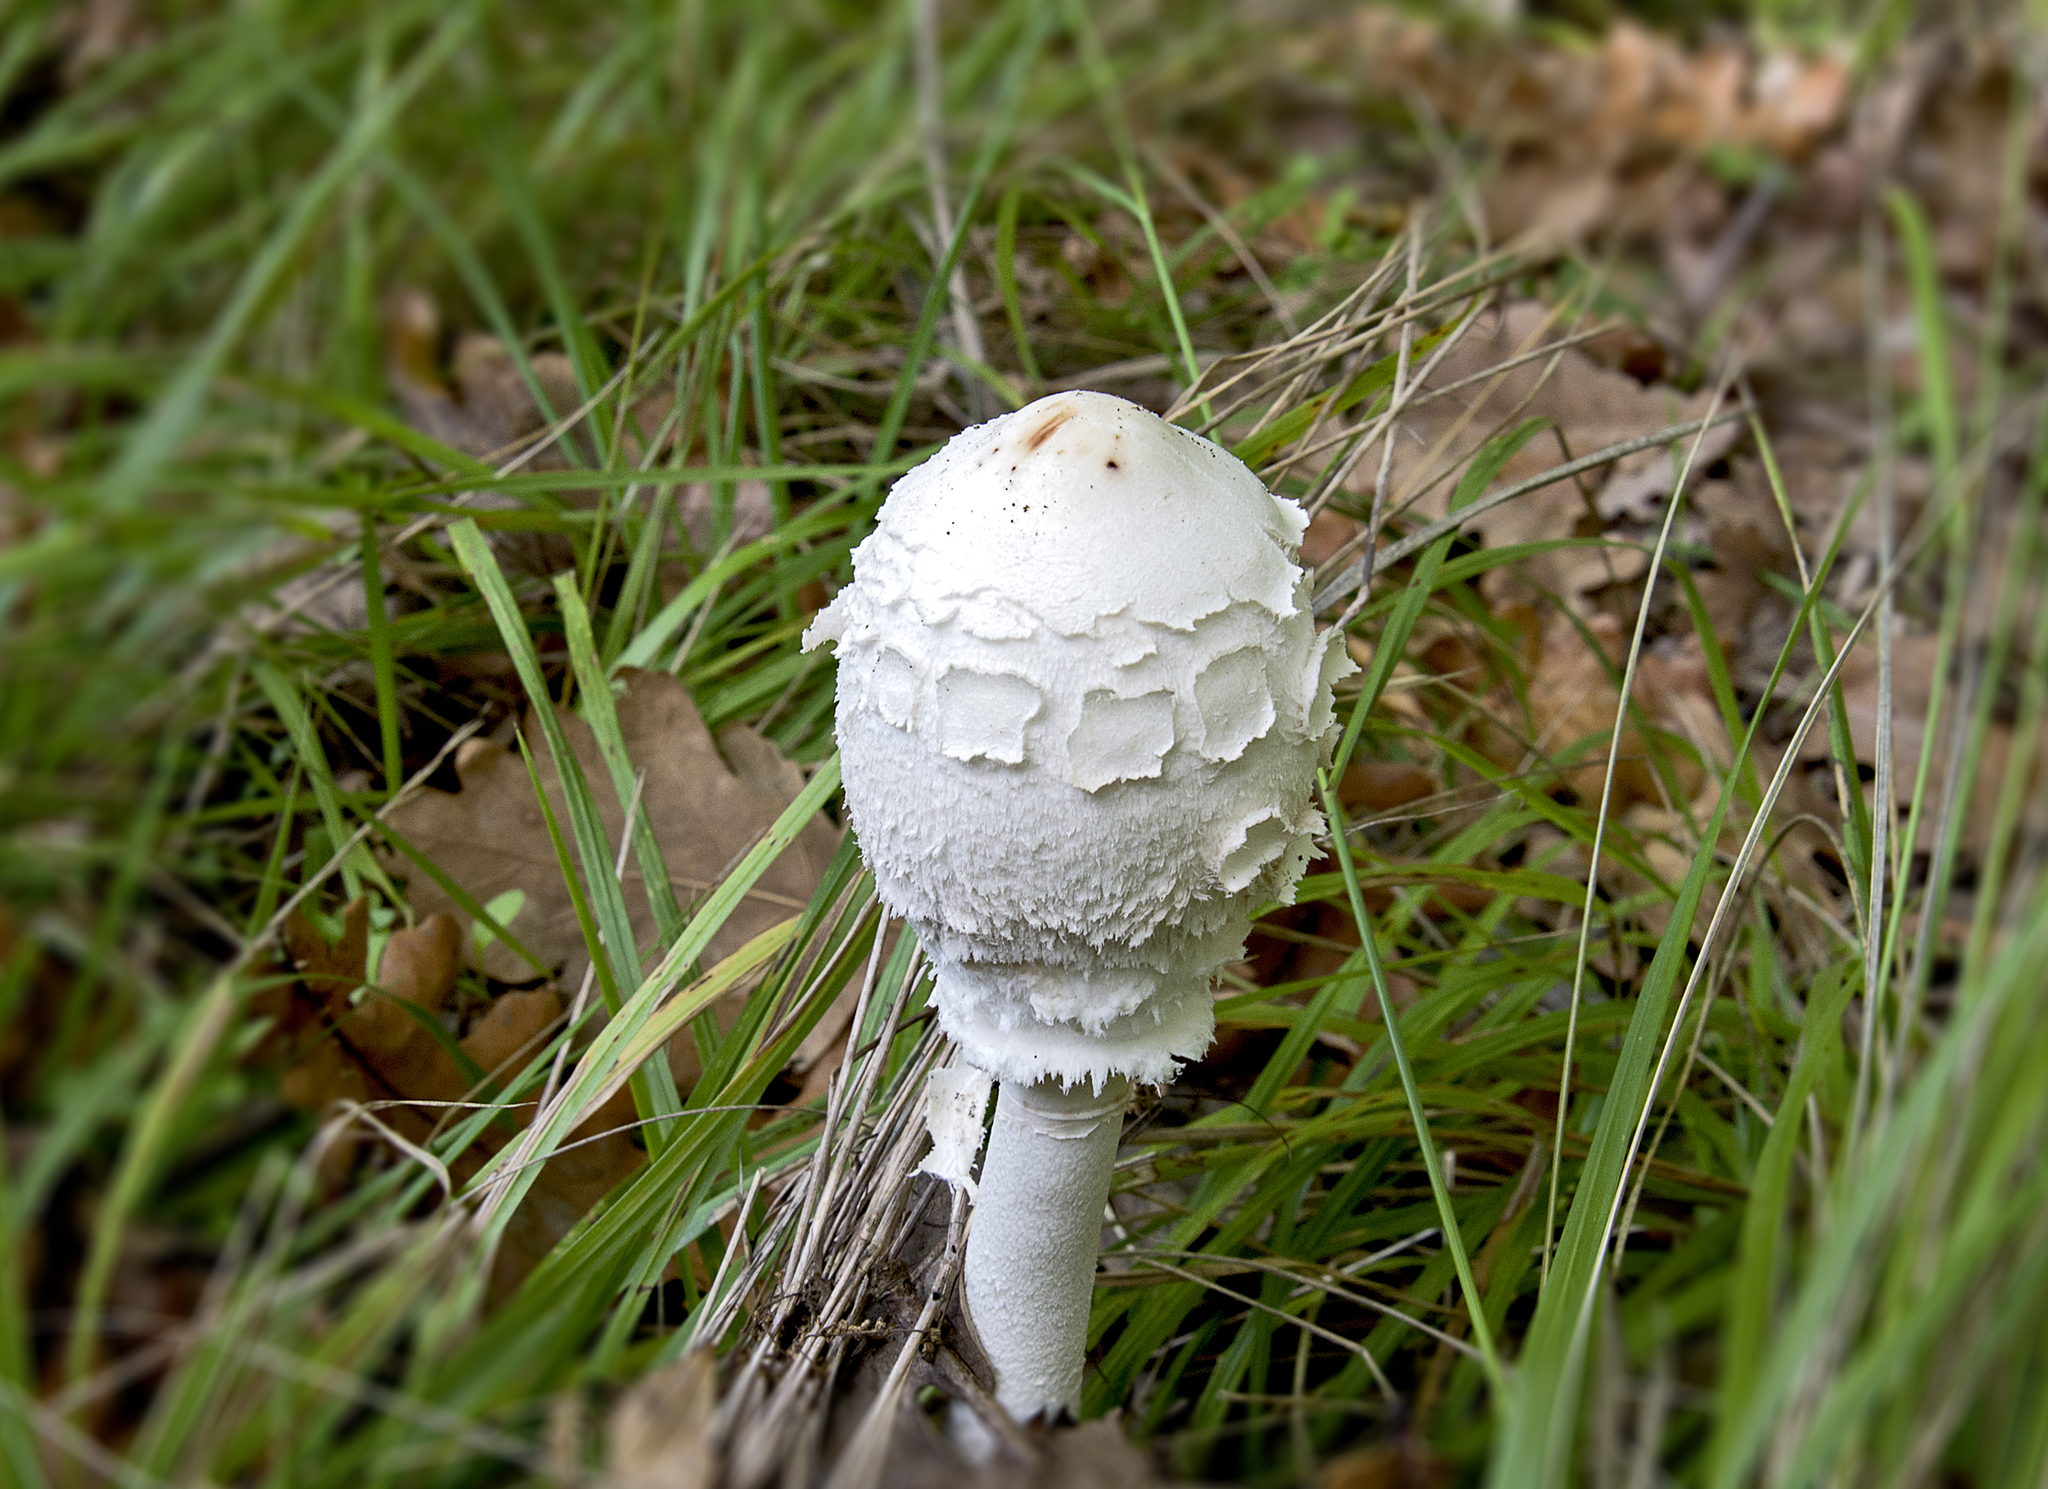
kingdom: Fungi
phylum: Basidiomycota
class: Agaricomycetes
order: Agaricales
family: Agaricaceae
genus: Macrolepiota
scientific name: Macrolepiota procera
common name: Parasol
